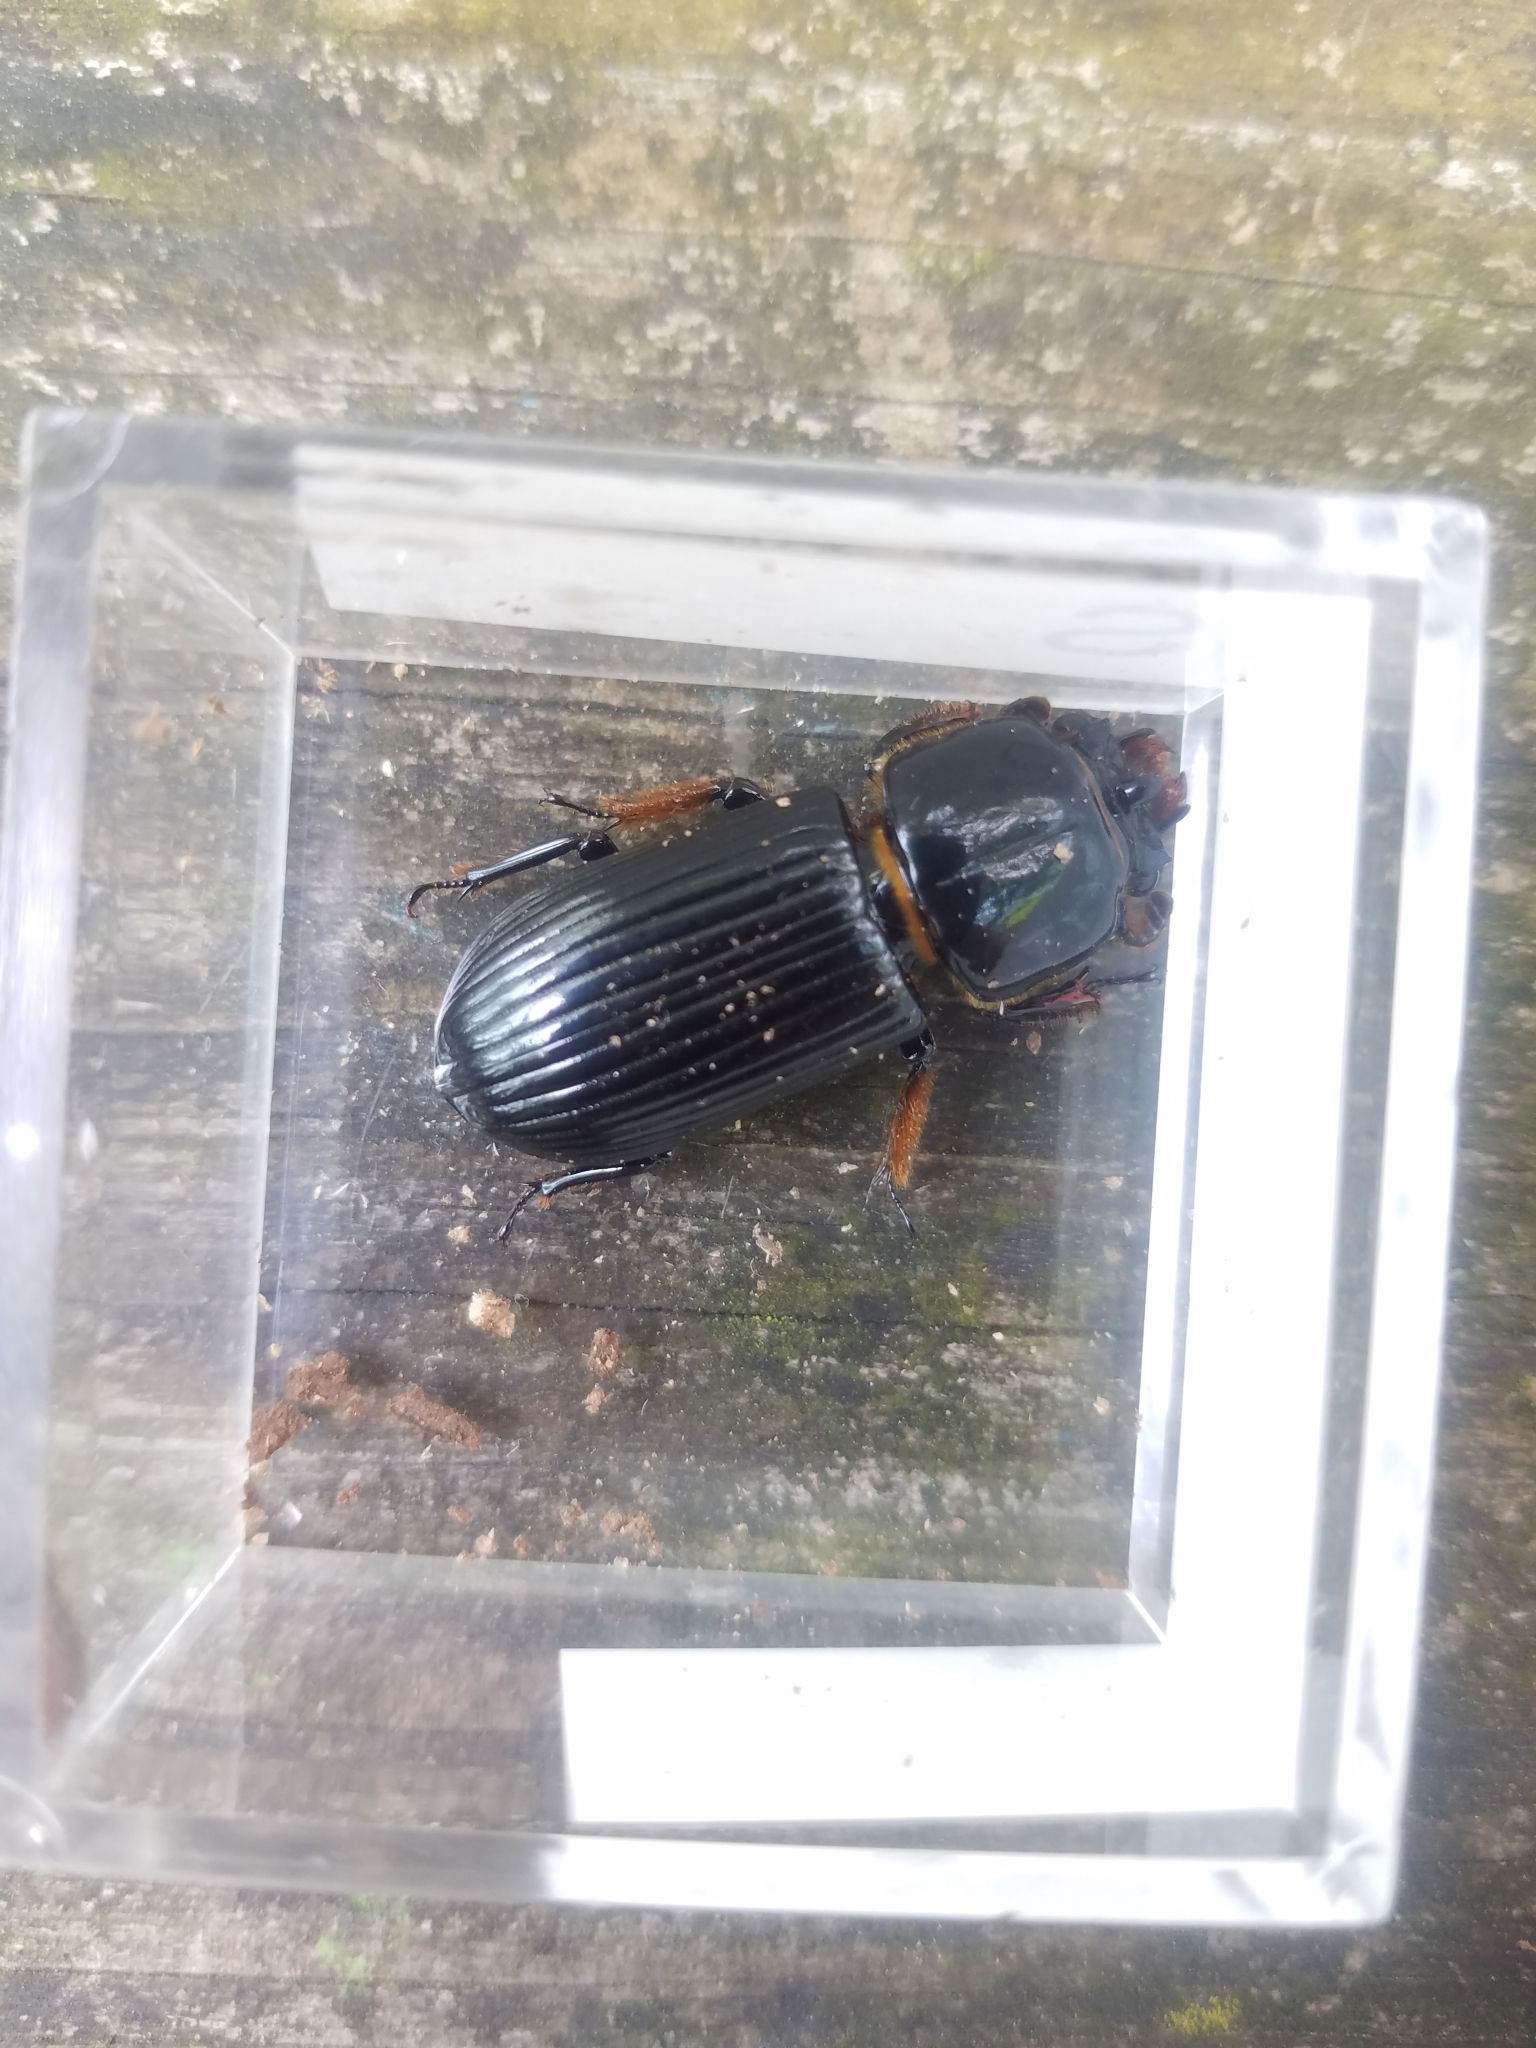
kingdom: Animalia
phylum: Arthropoda
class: Insecta
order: Coleoptera
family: Passalidae
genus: Odontotaenius
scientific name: Odontotaenius disjunctus
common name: Patent leather beetle
